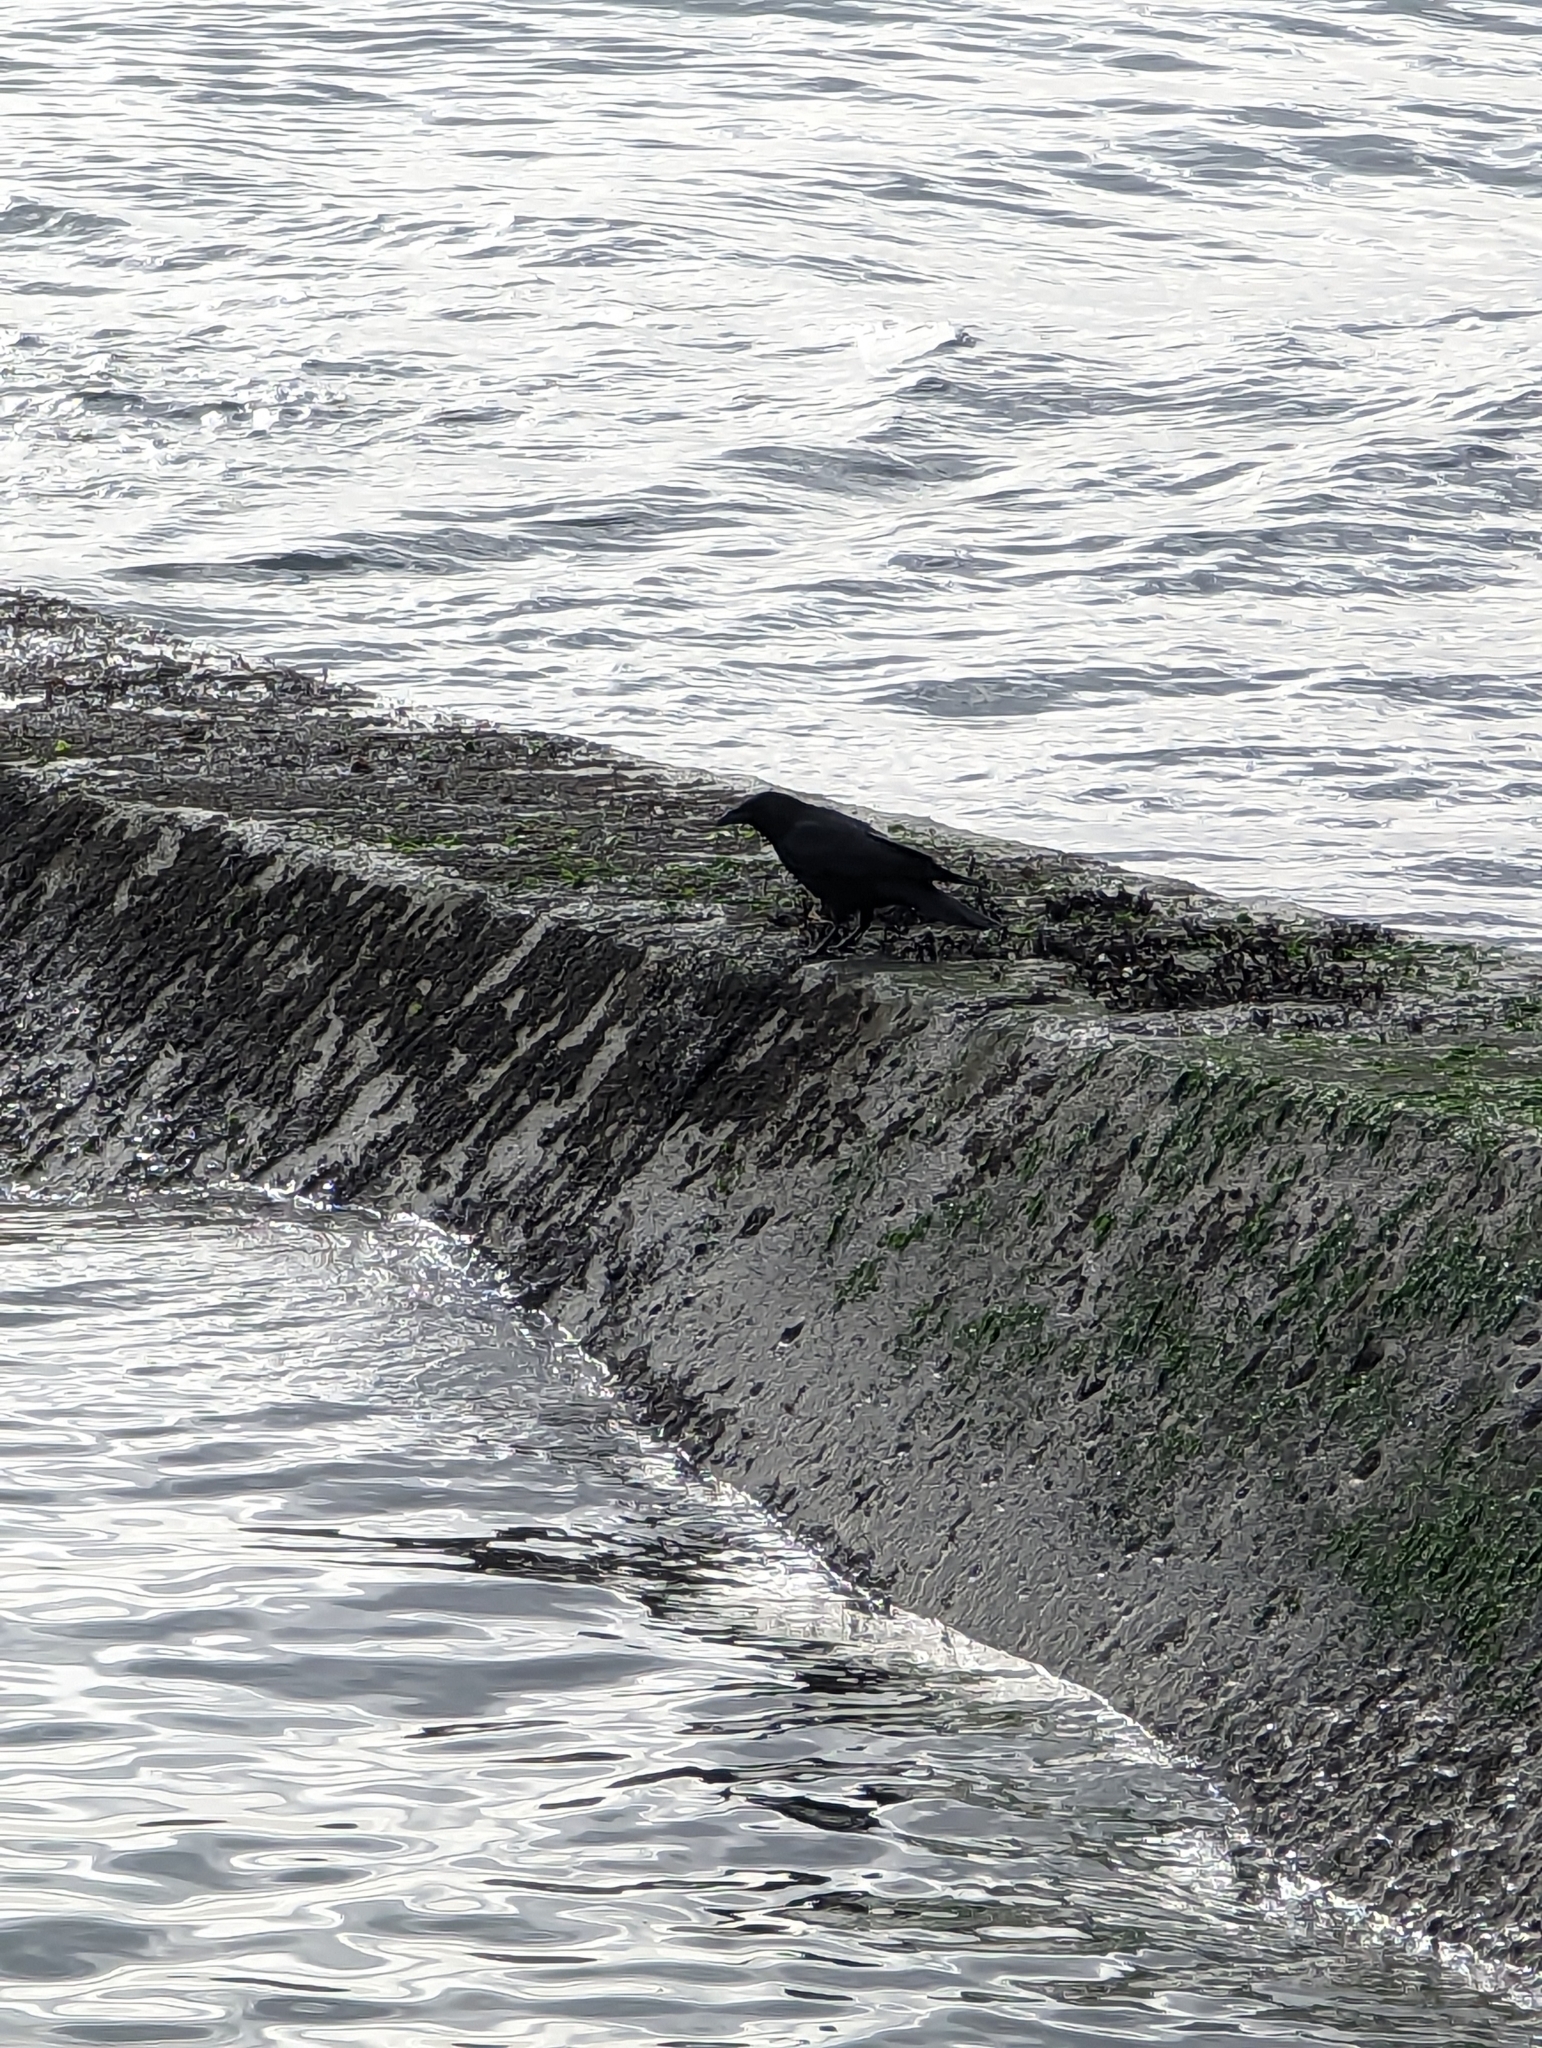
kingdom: Animalia
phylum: Chordata
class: Aves
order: Passeriformes
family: Corvidae
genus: Corvus
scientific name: Corvus brachyrhynchos
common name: American crow
